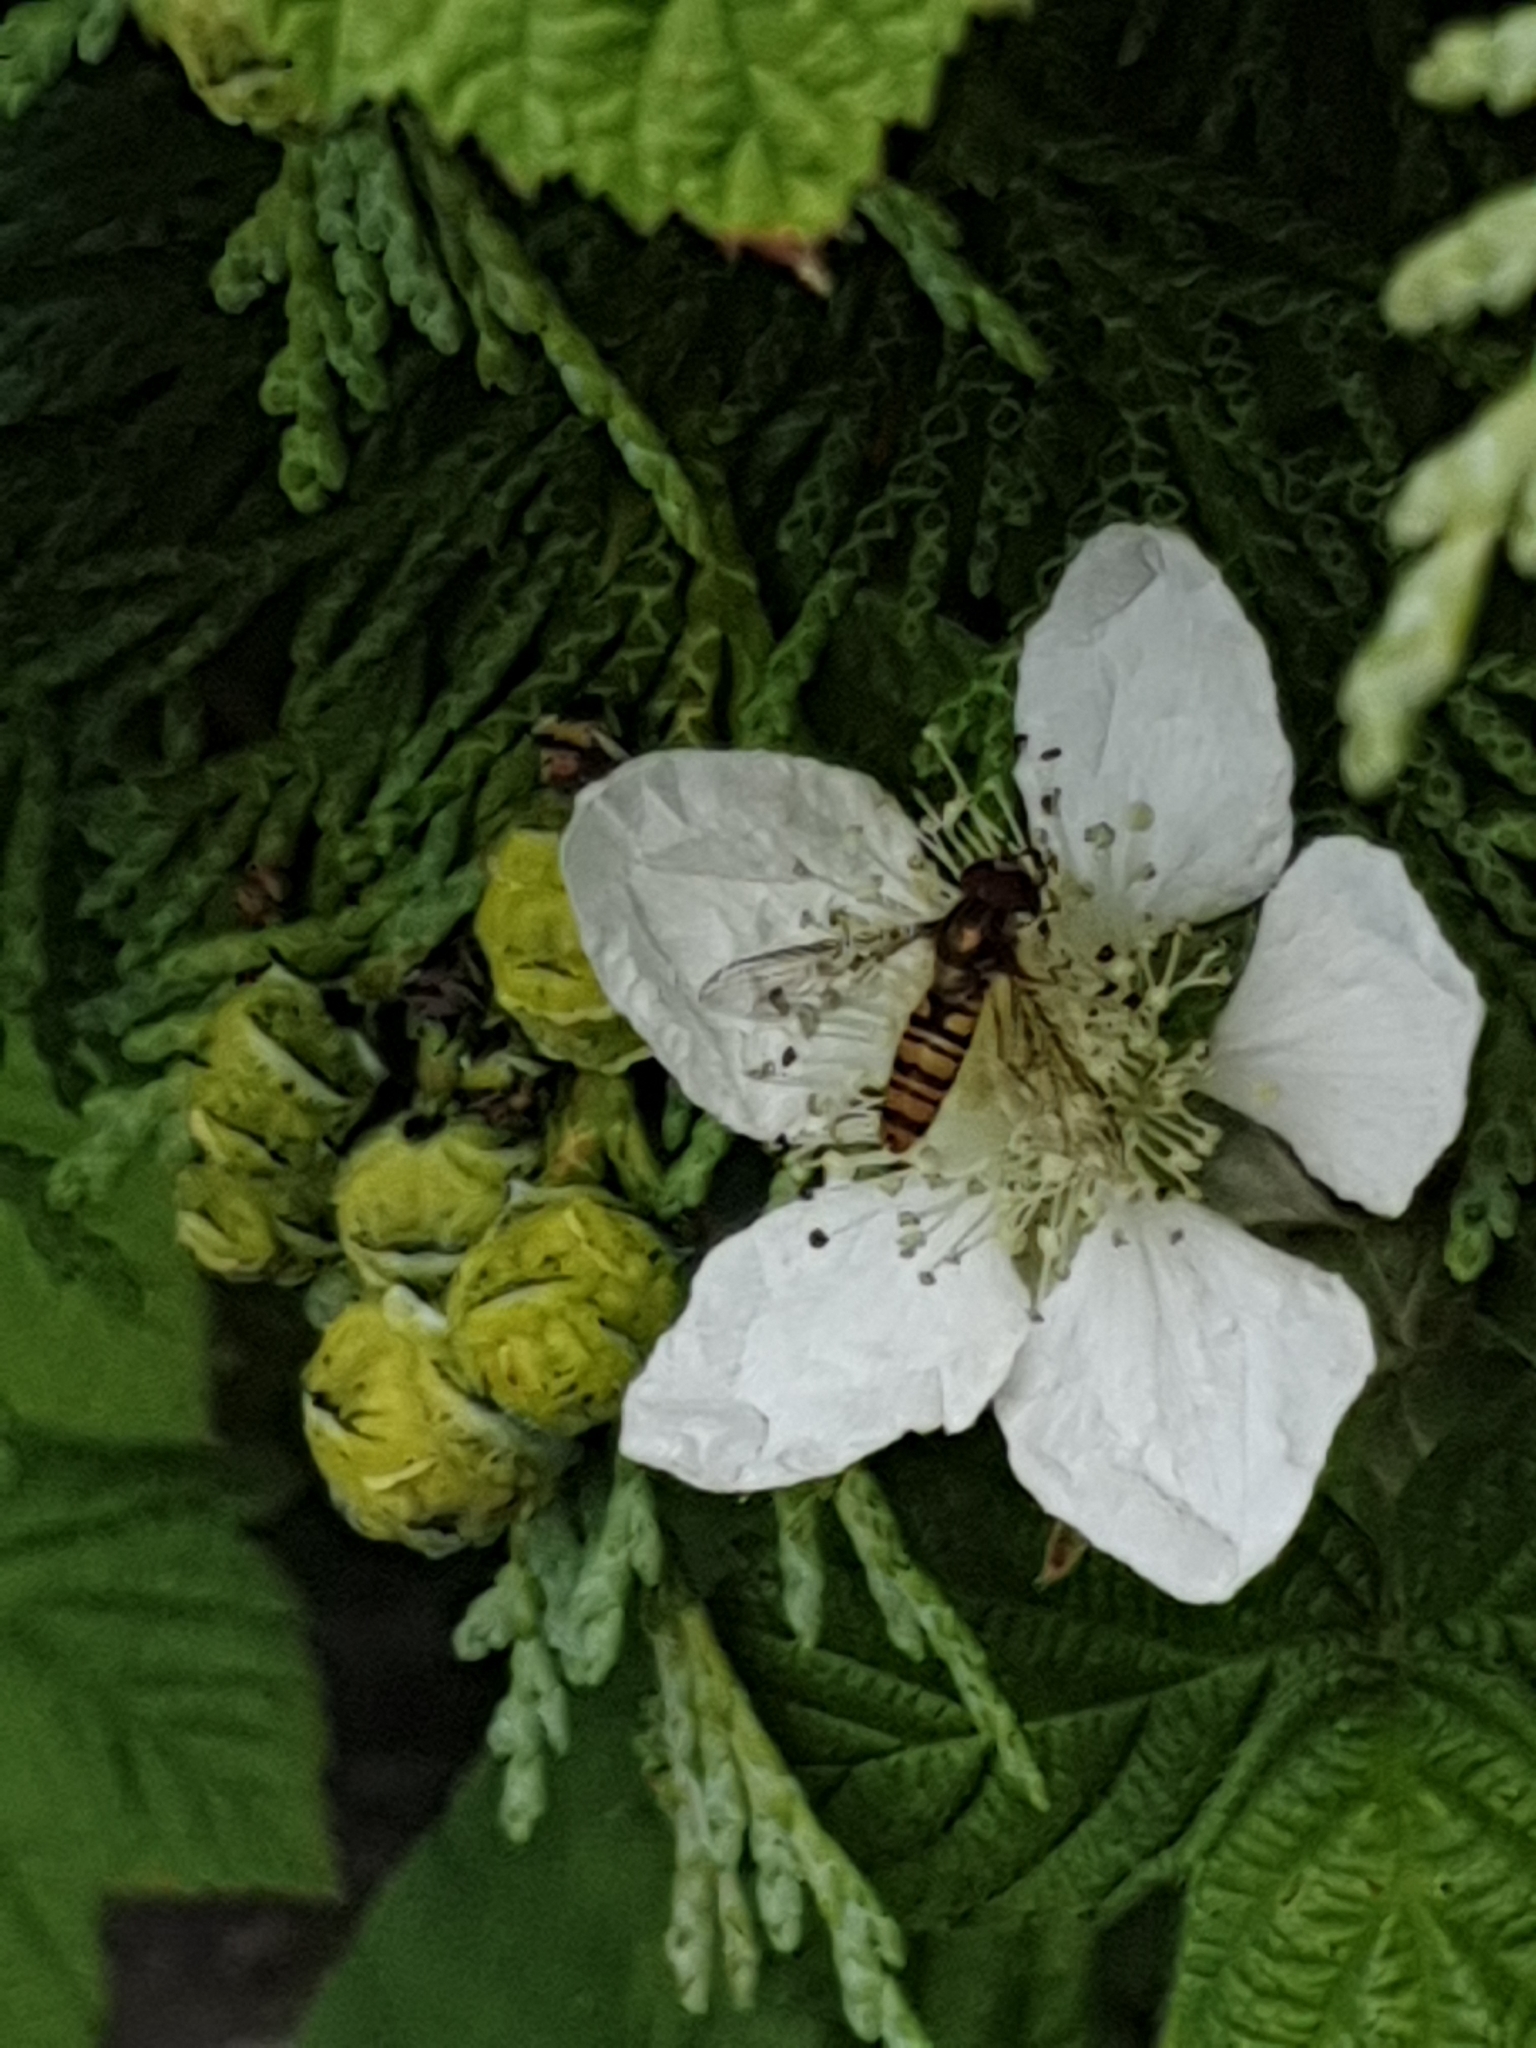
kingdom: Animalia
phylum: Arthropoda
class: Insecta
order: Diptera
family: Syrphidae
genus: Episyrphus
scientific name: Episyrphus balteatus
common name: Marmalade hoverfly
